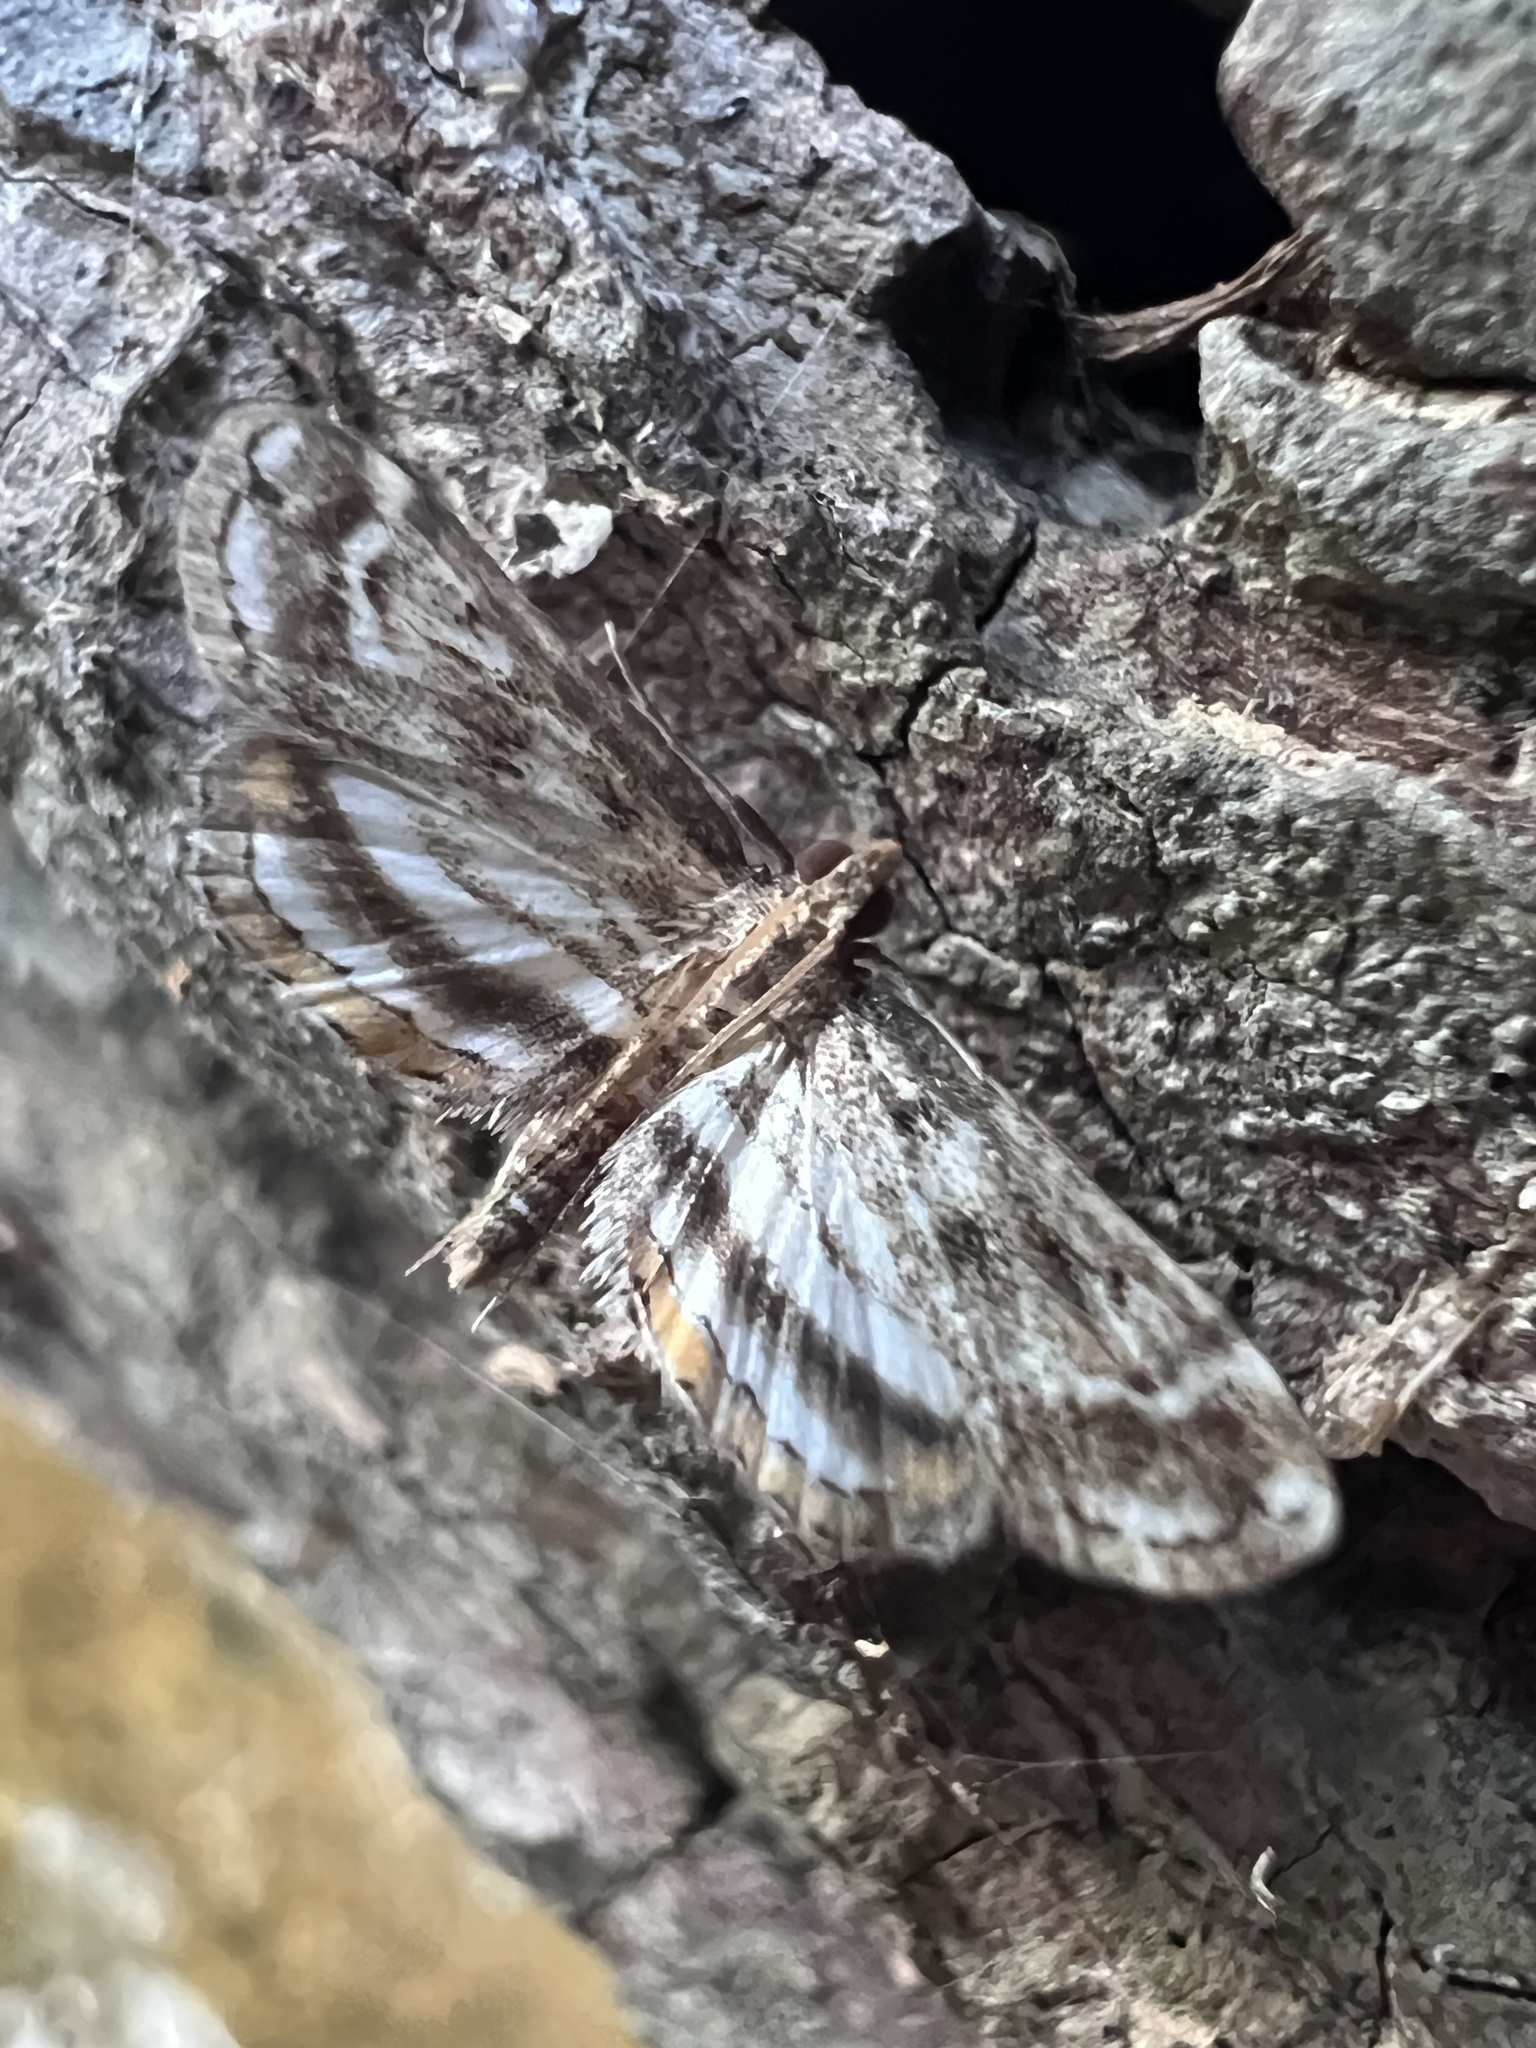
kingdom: Animalia
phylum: Arthropoda
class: Insecta
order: Lepidoptera
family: Crambidae
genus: Parapoynx
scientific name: Parapoynx obscuralis
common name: American china-mark
